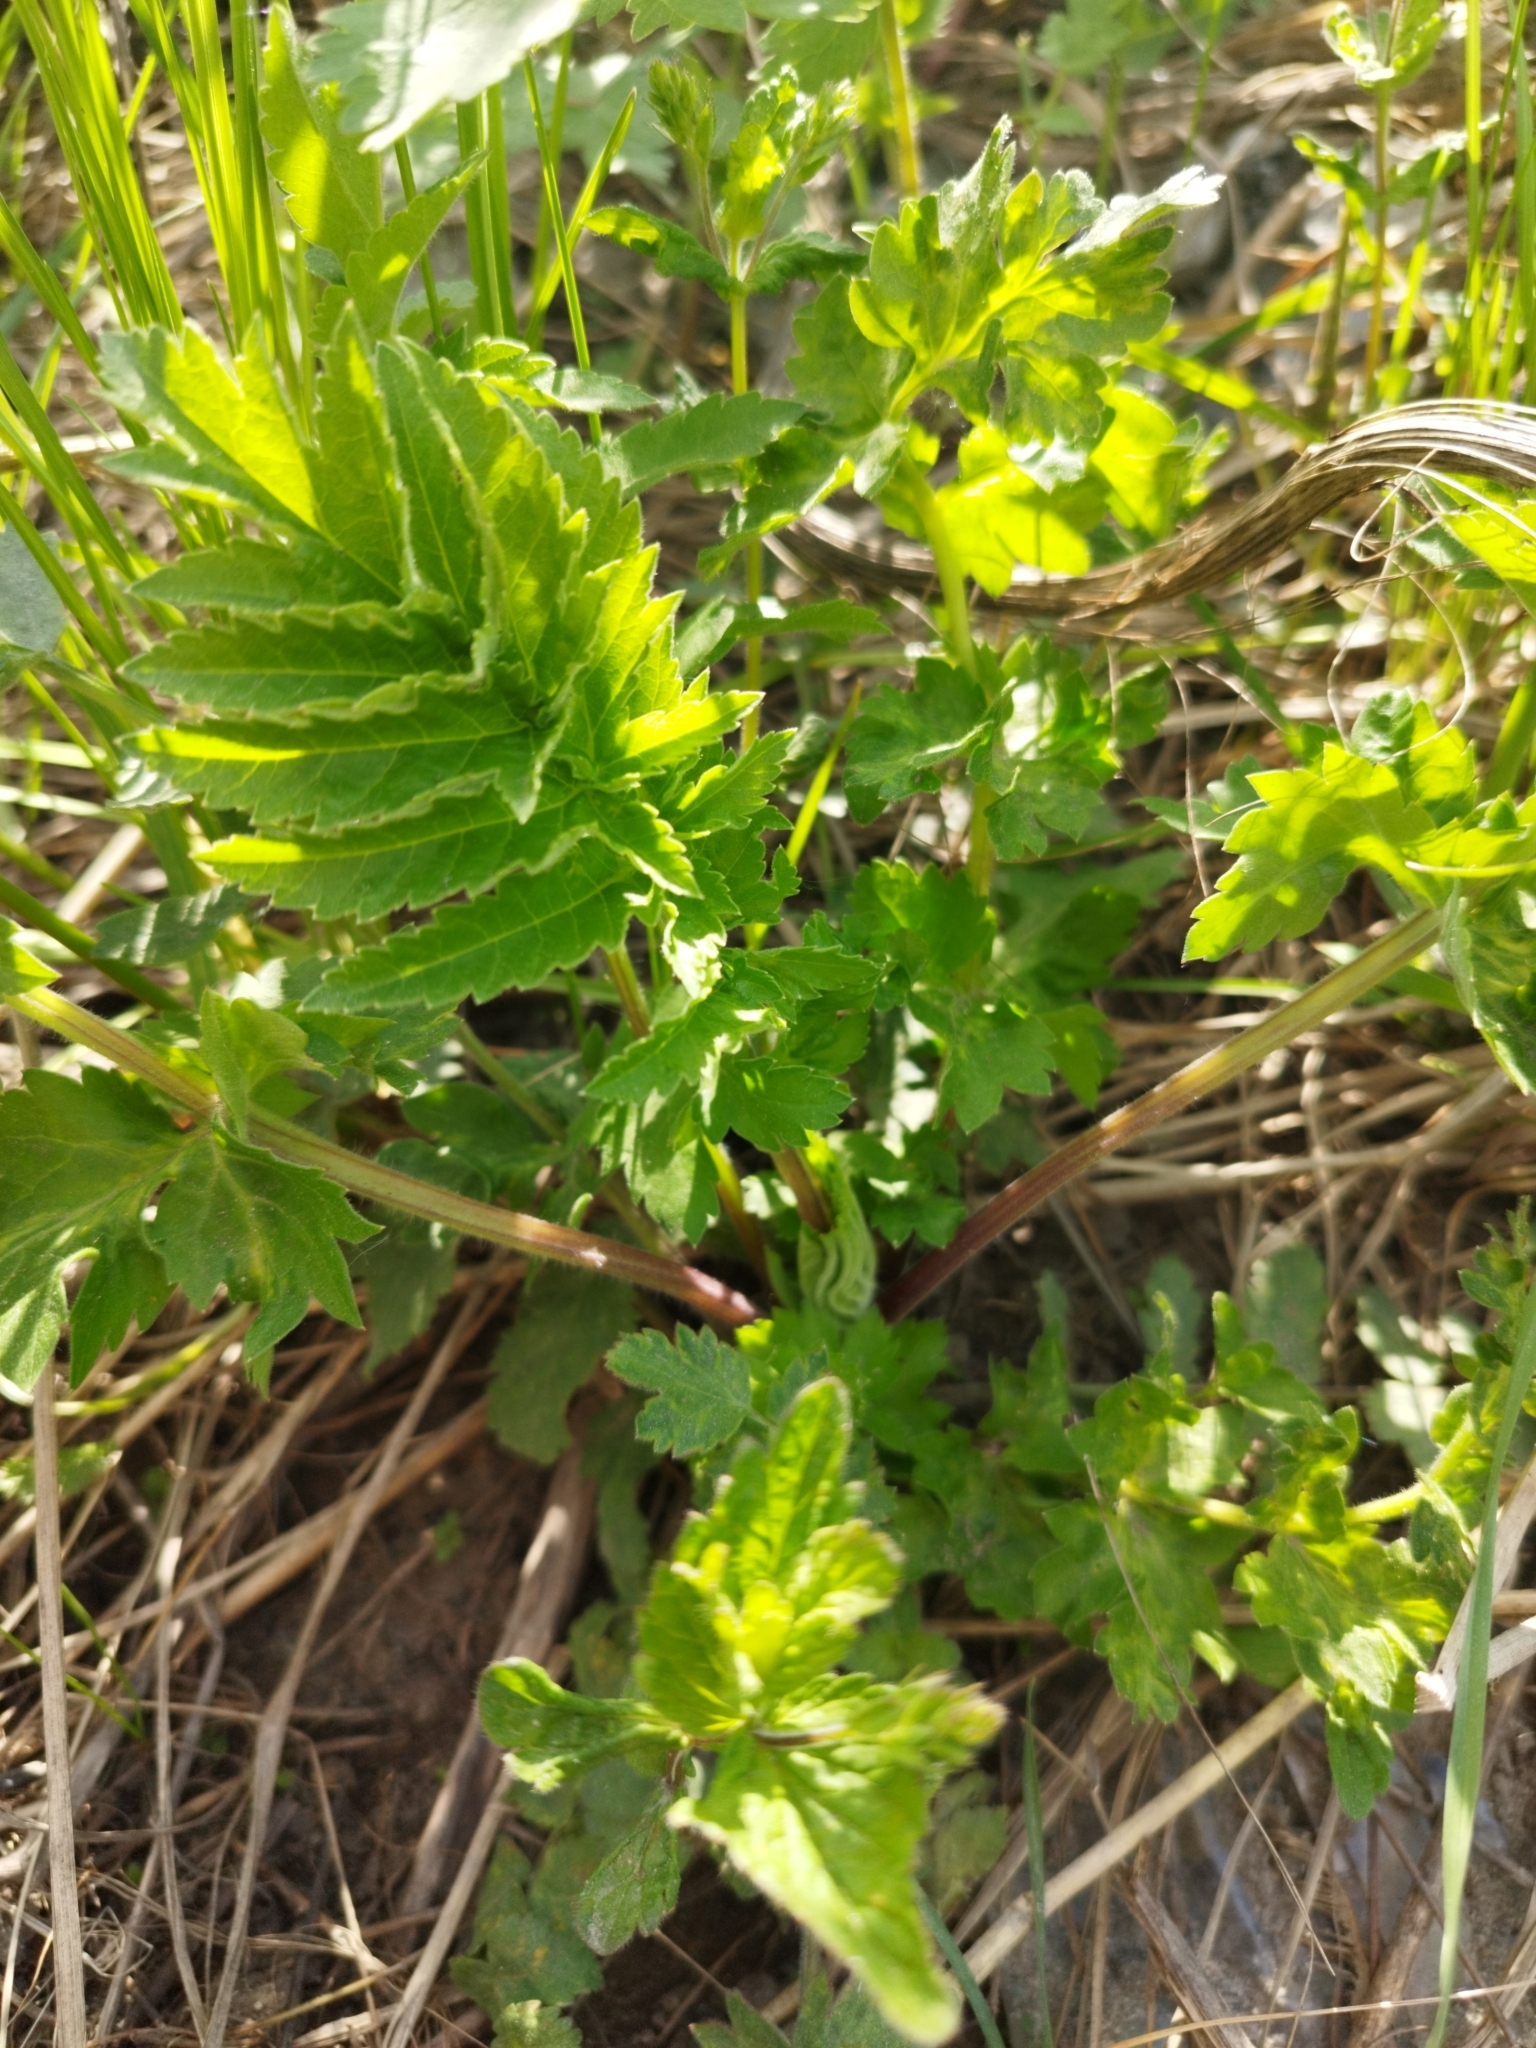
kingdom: Plantae
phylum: Tracheophyta
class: Magnoliopsida
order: Apiales
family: Apiaceae
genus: Pastinaca
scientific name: Pastinaca sativa
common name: Wild parsnip
